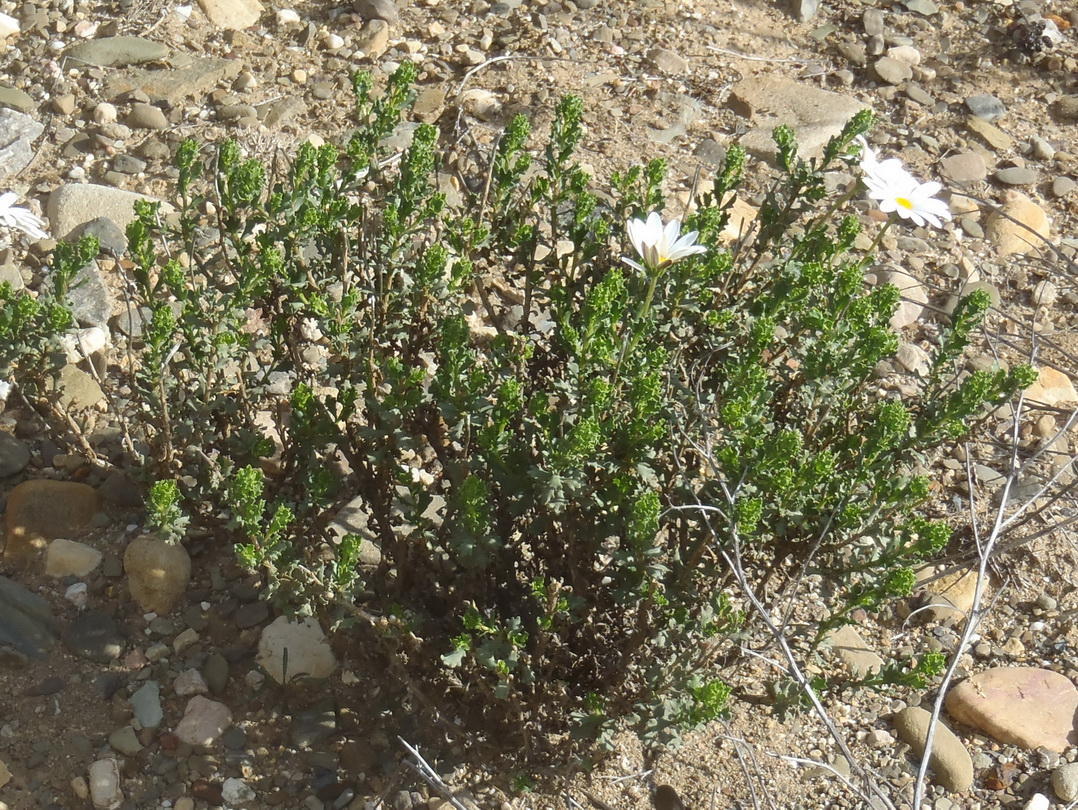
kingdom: Plantae
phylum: Tracheophyta
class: Magnoliopsida
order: Asterales
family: Asteraceae
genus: Dimorphotheca
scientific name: Dimorphotheca cuneata
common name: Daisy
